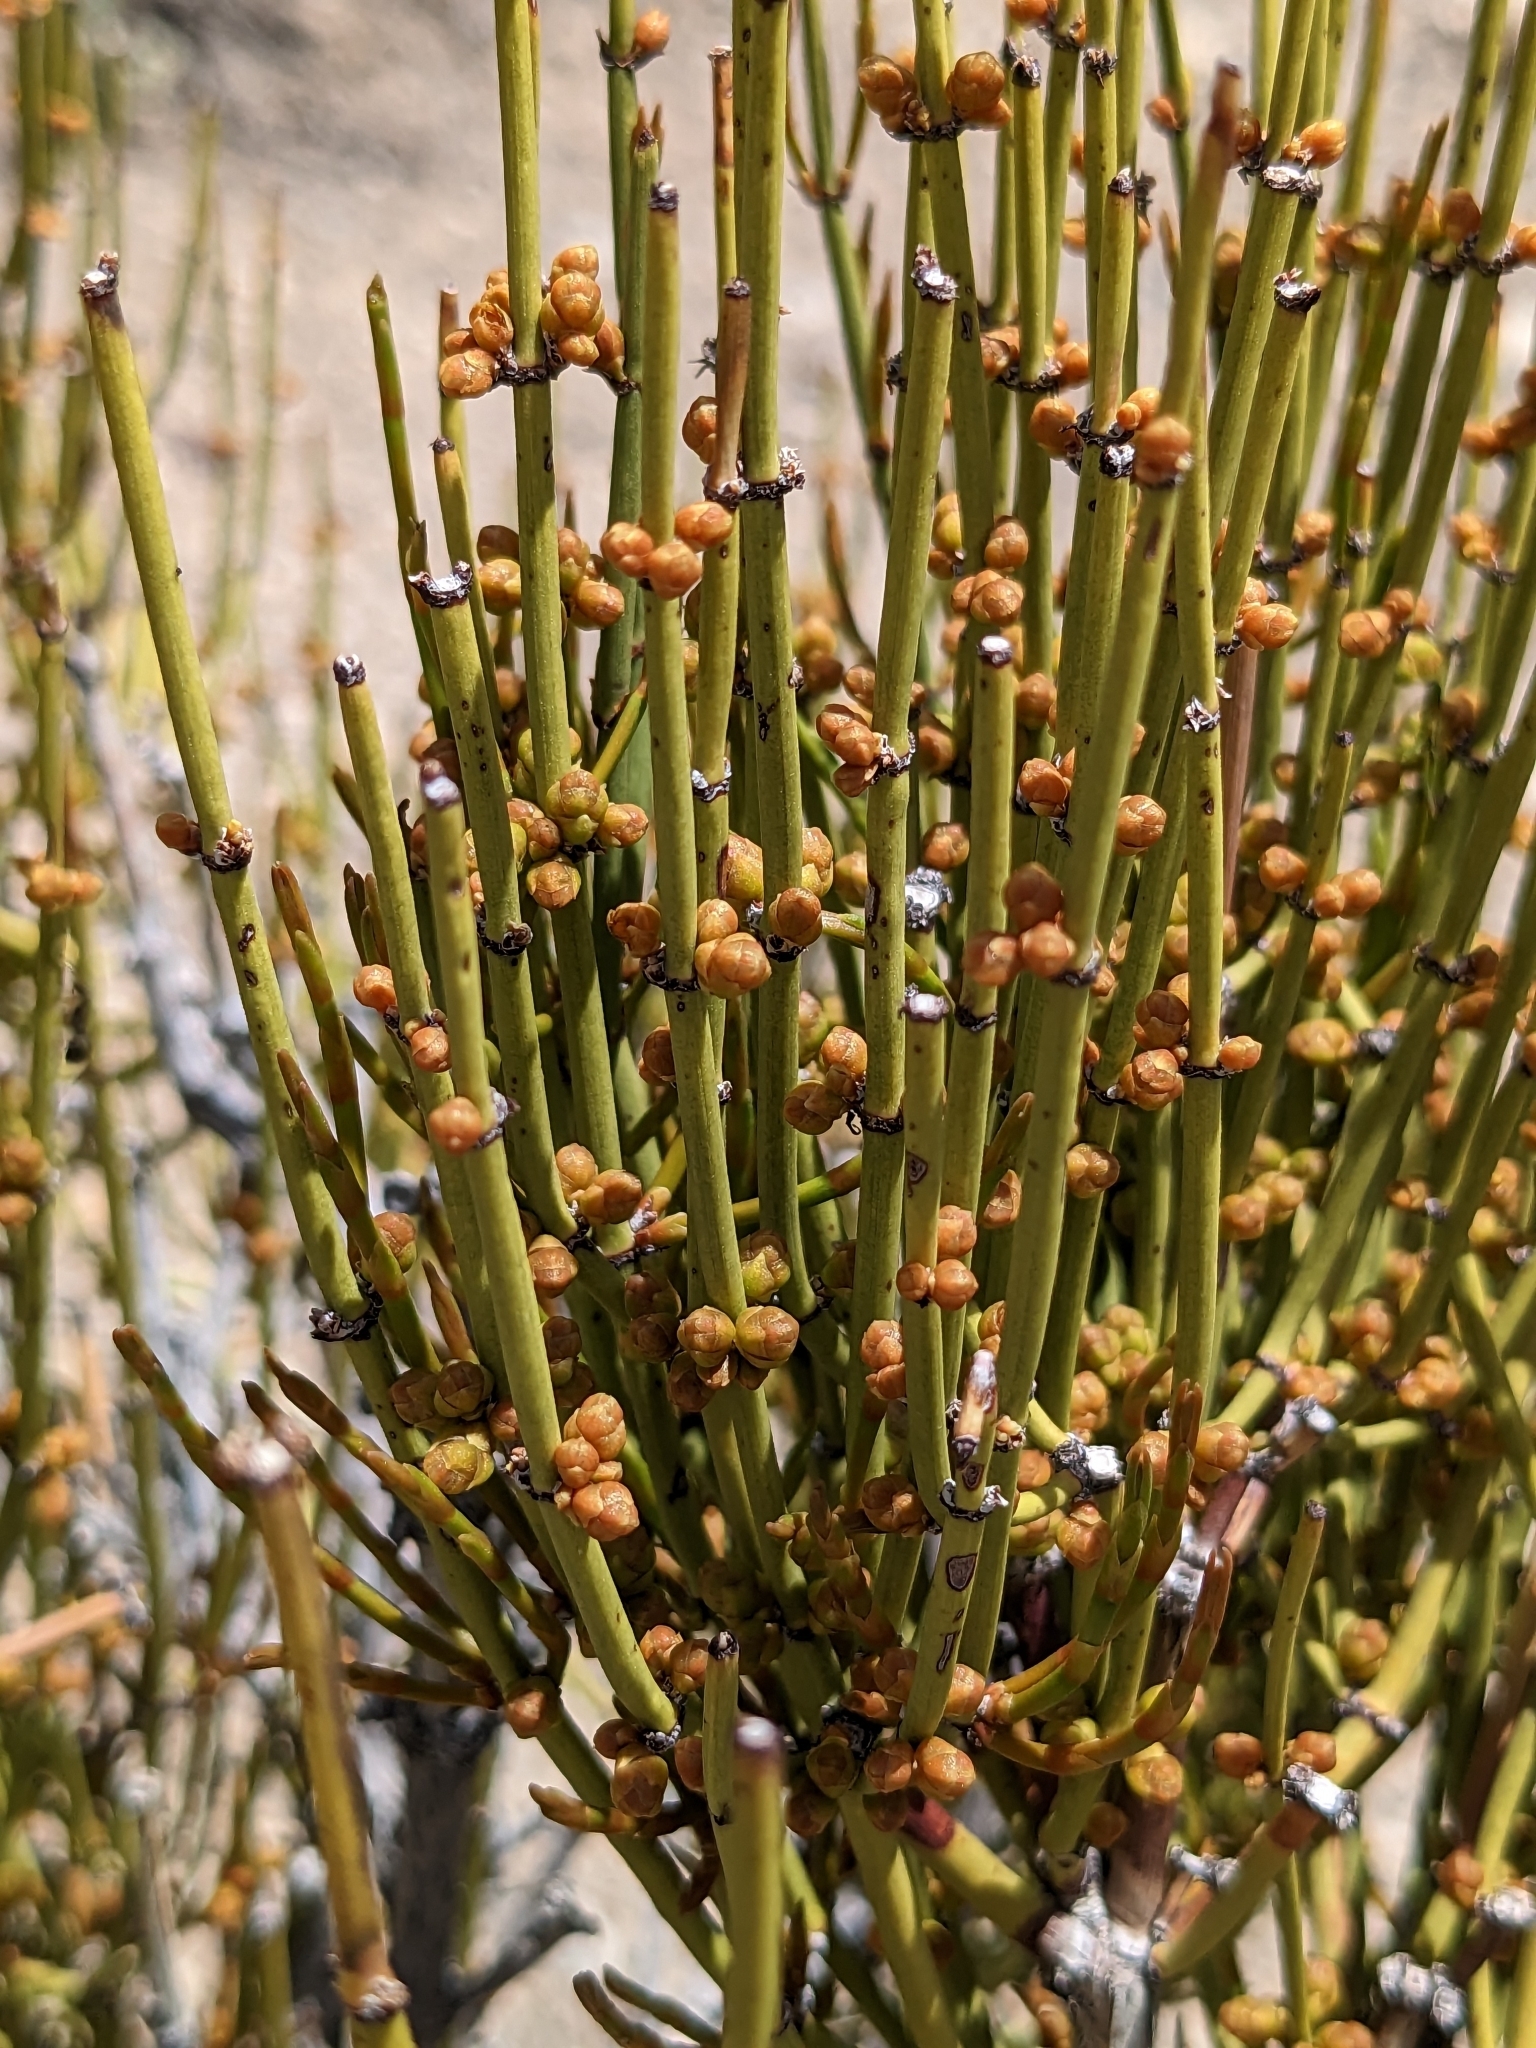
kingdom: Plantae
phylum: Tracheophyta
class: Gnetopsida
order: Ephedrales
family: Ephedraceae
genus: Ephedra
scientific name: Ephedra viridis
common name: Green ephedra
